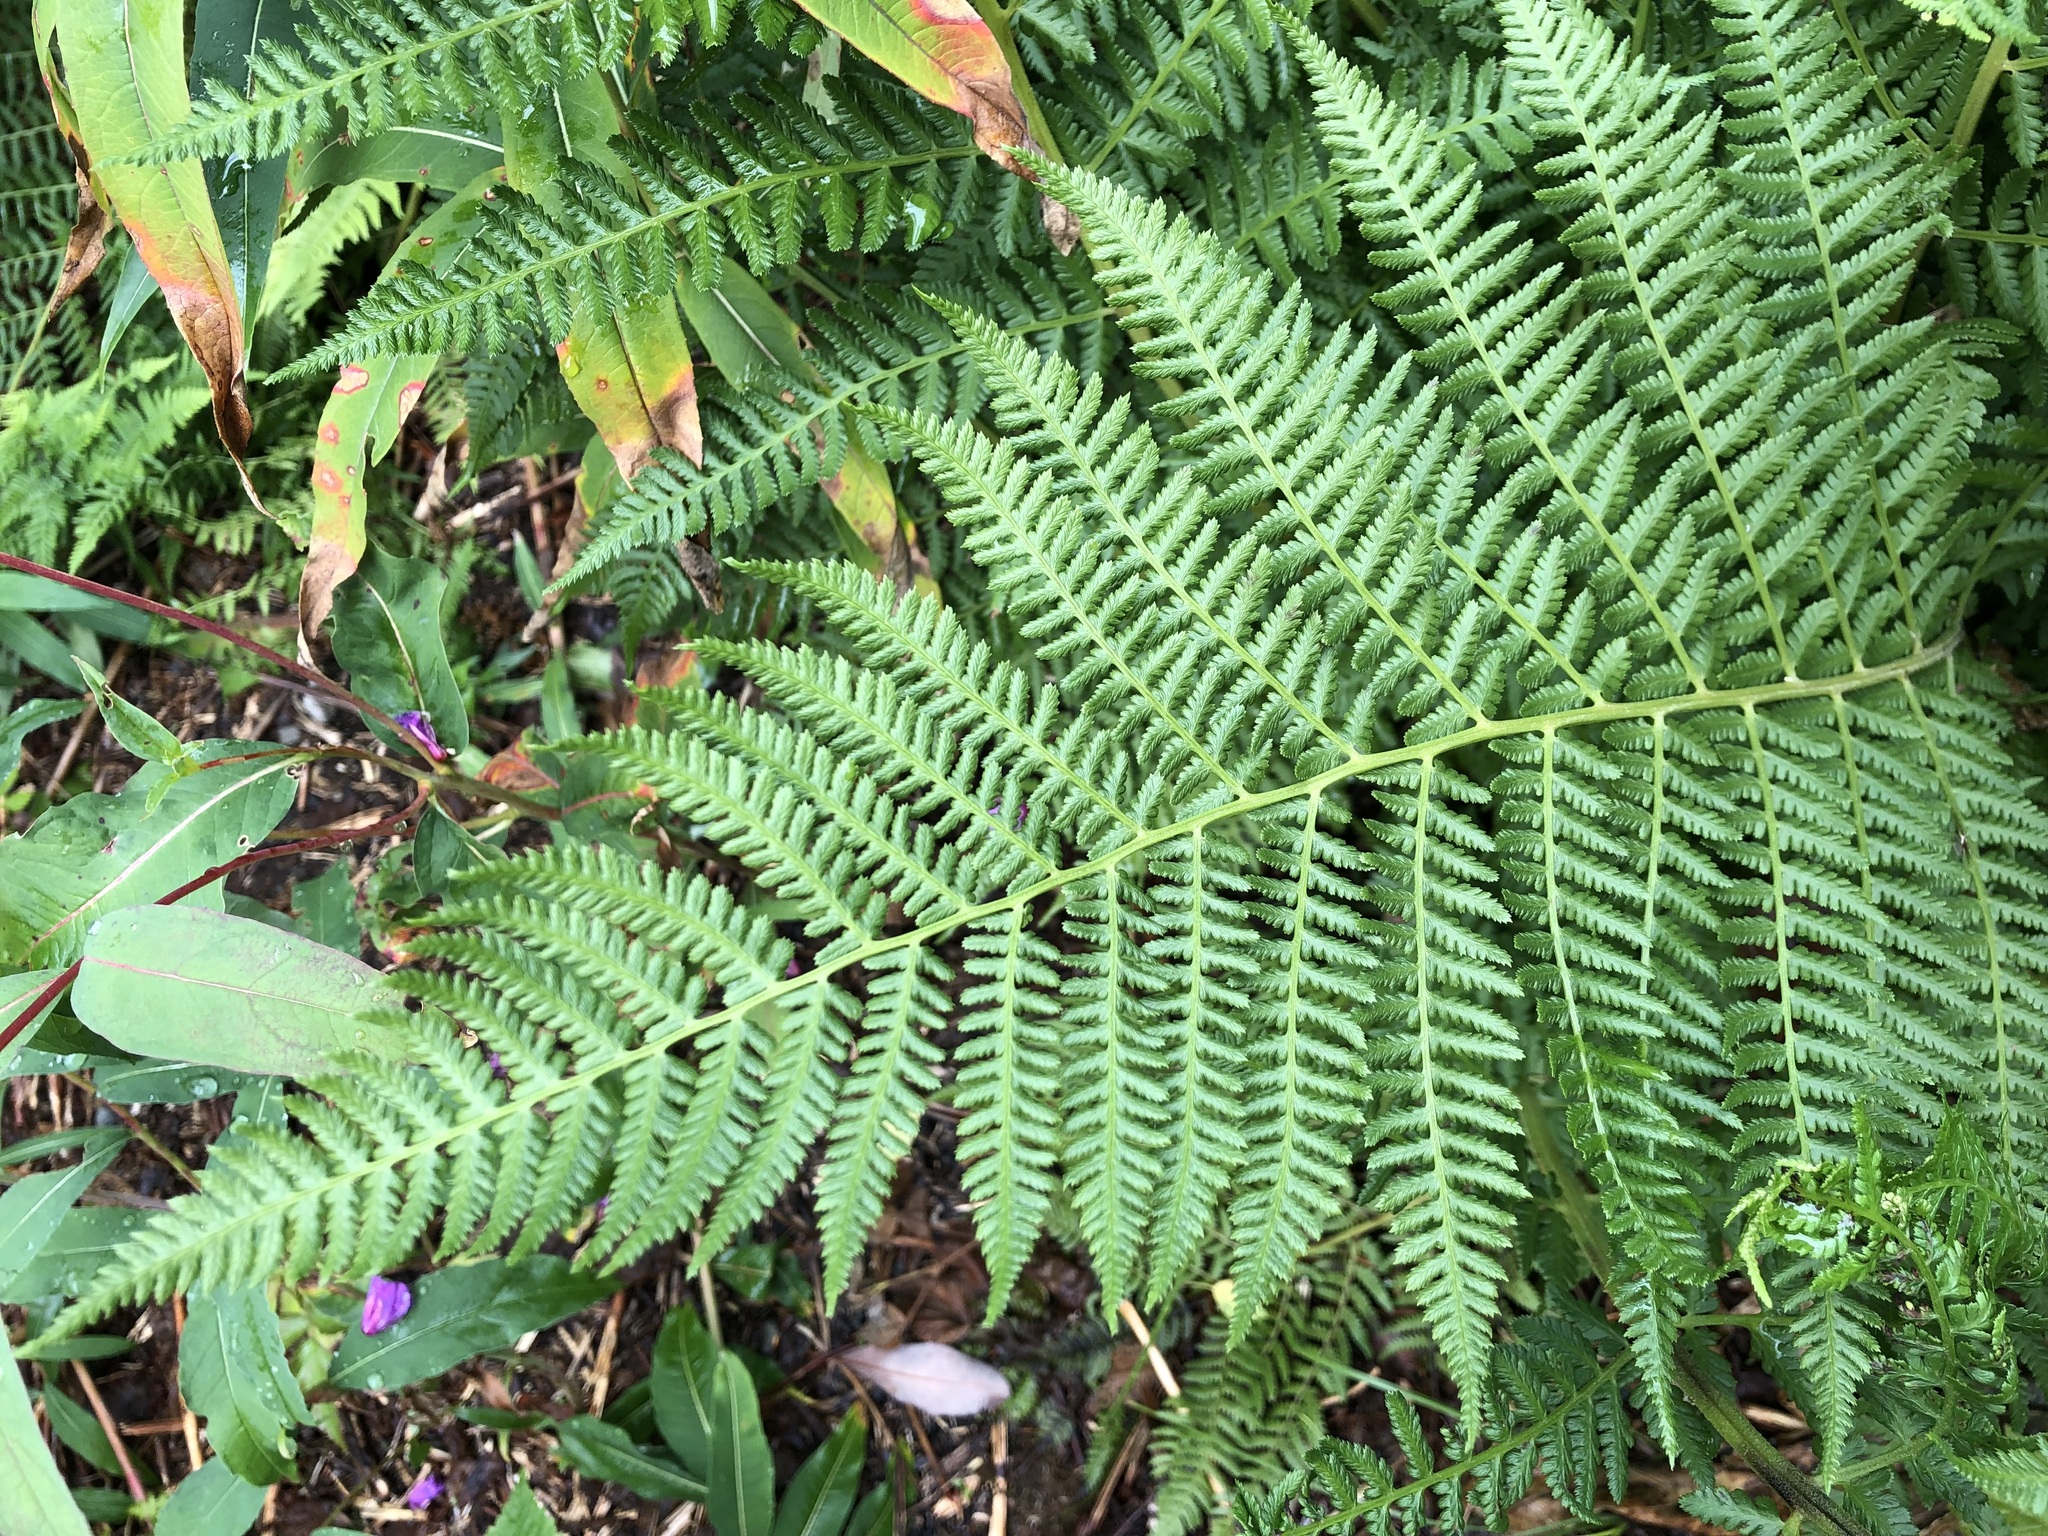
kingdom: Plantae
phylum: Tracheophyta
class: Polypodiopsida
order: Polypodiales
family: Athyriaceae
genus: Athyrium
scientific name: Athyrium cyclosorum
